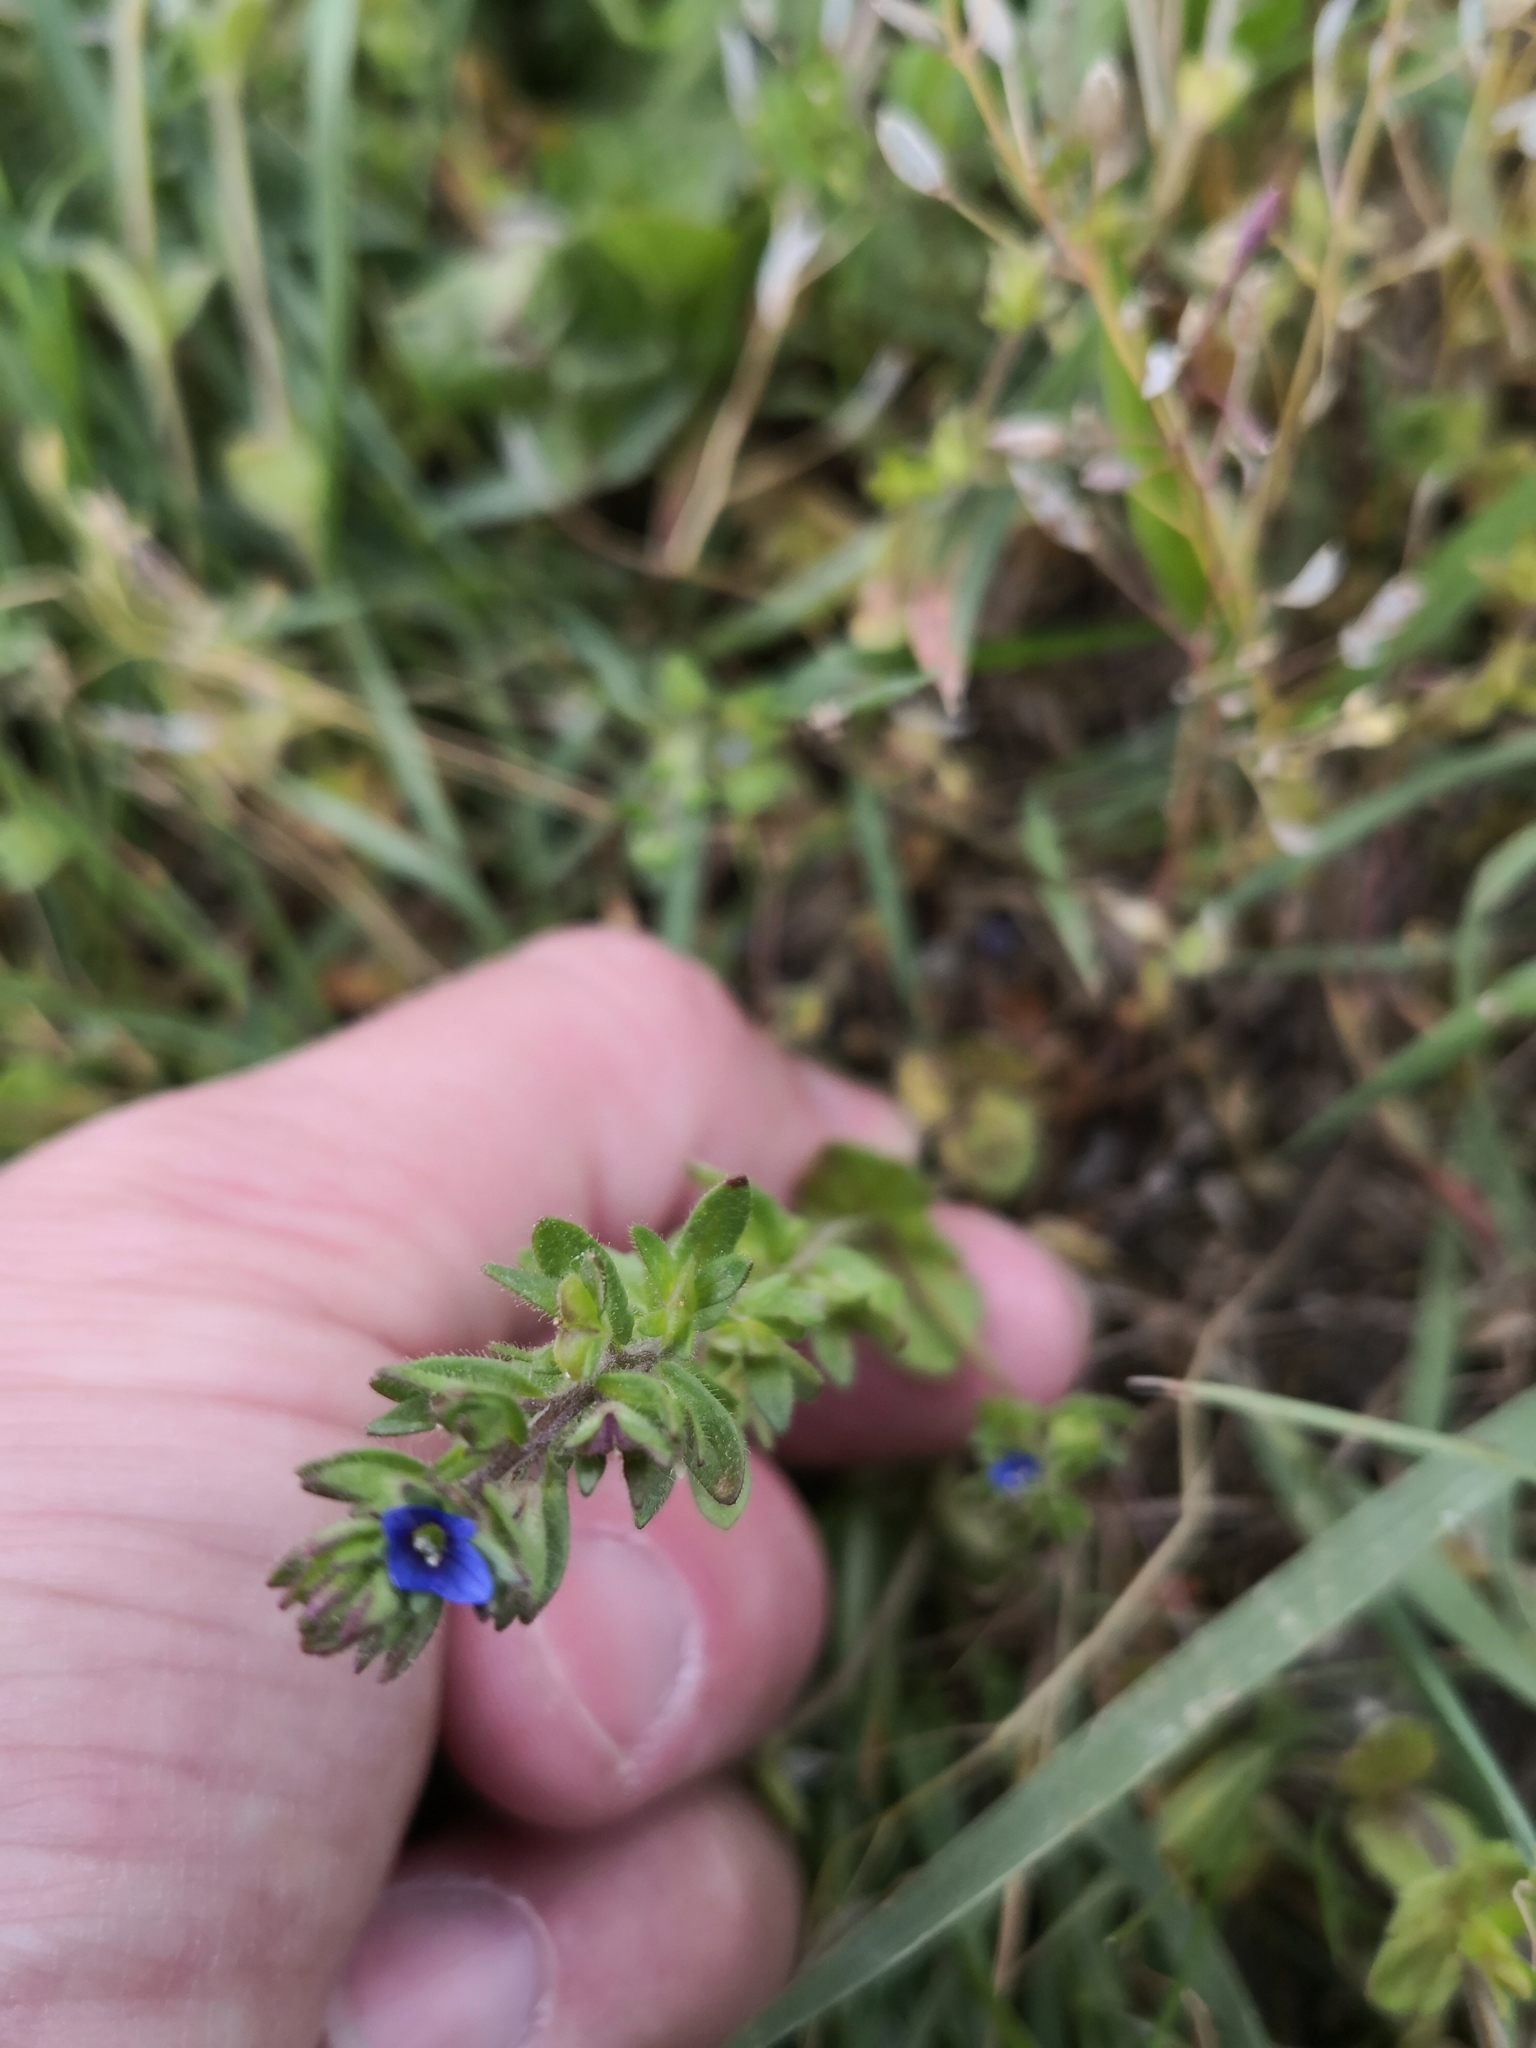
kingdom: Plantae
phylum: Tracheophyta
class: Magnoliopsida
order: Lamiales
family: Plantaginaceae
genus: Veronica
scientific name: Veronica arvensis
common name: Corn speedwell
